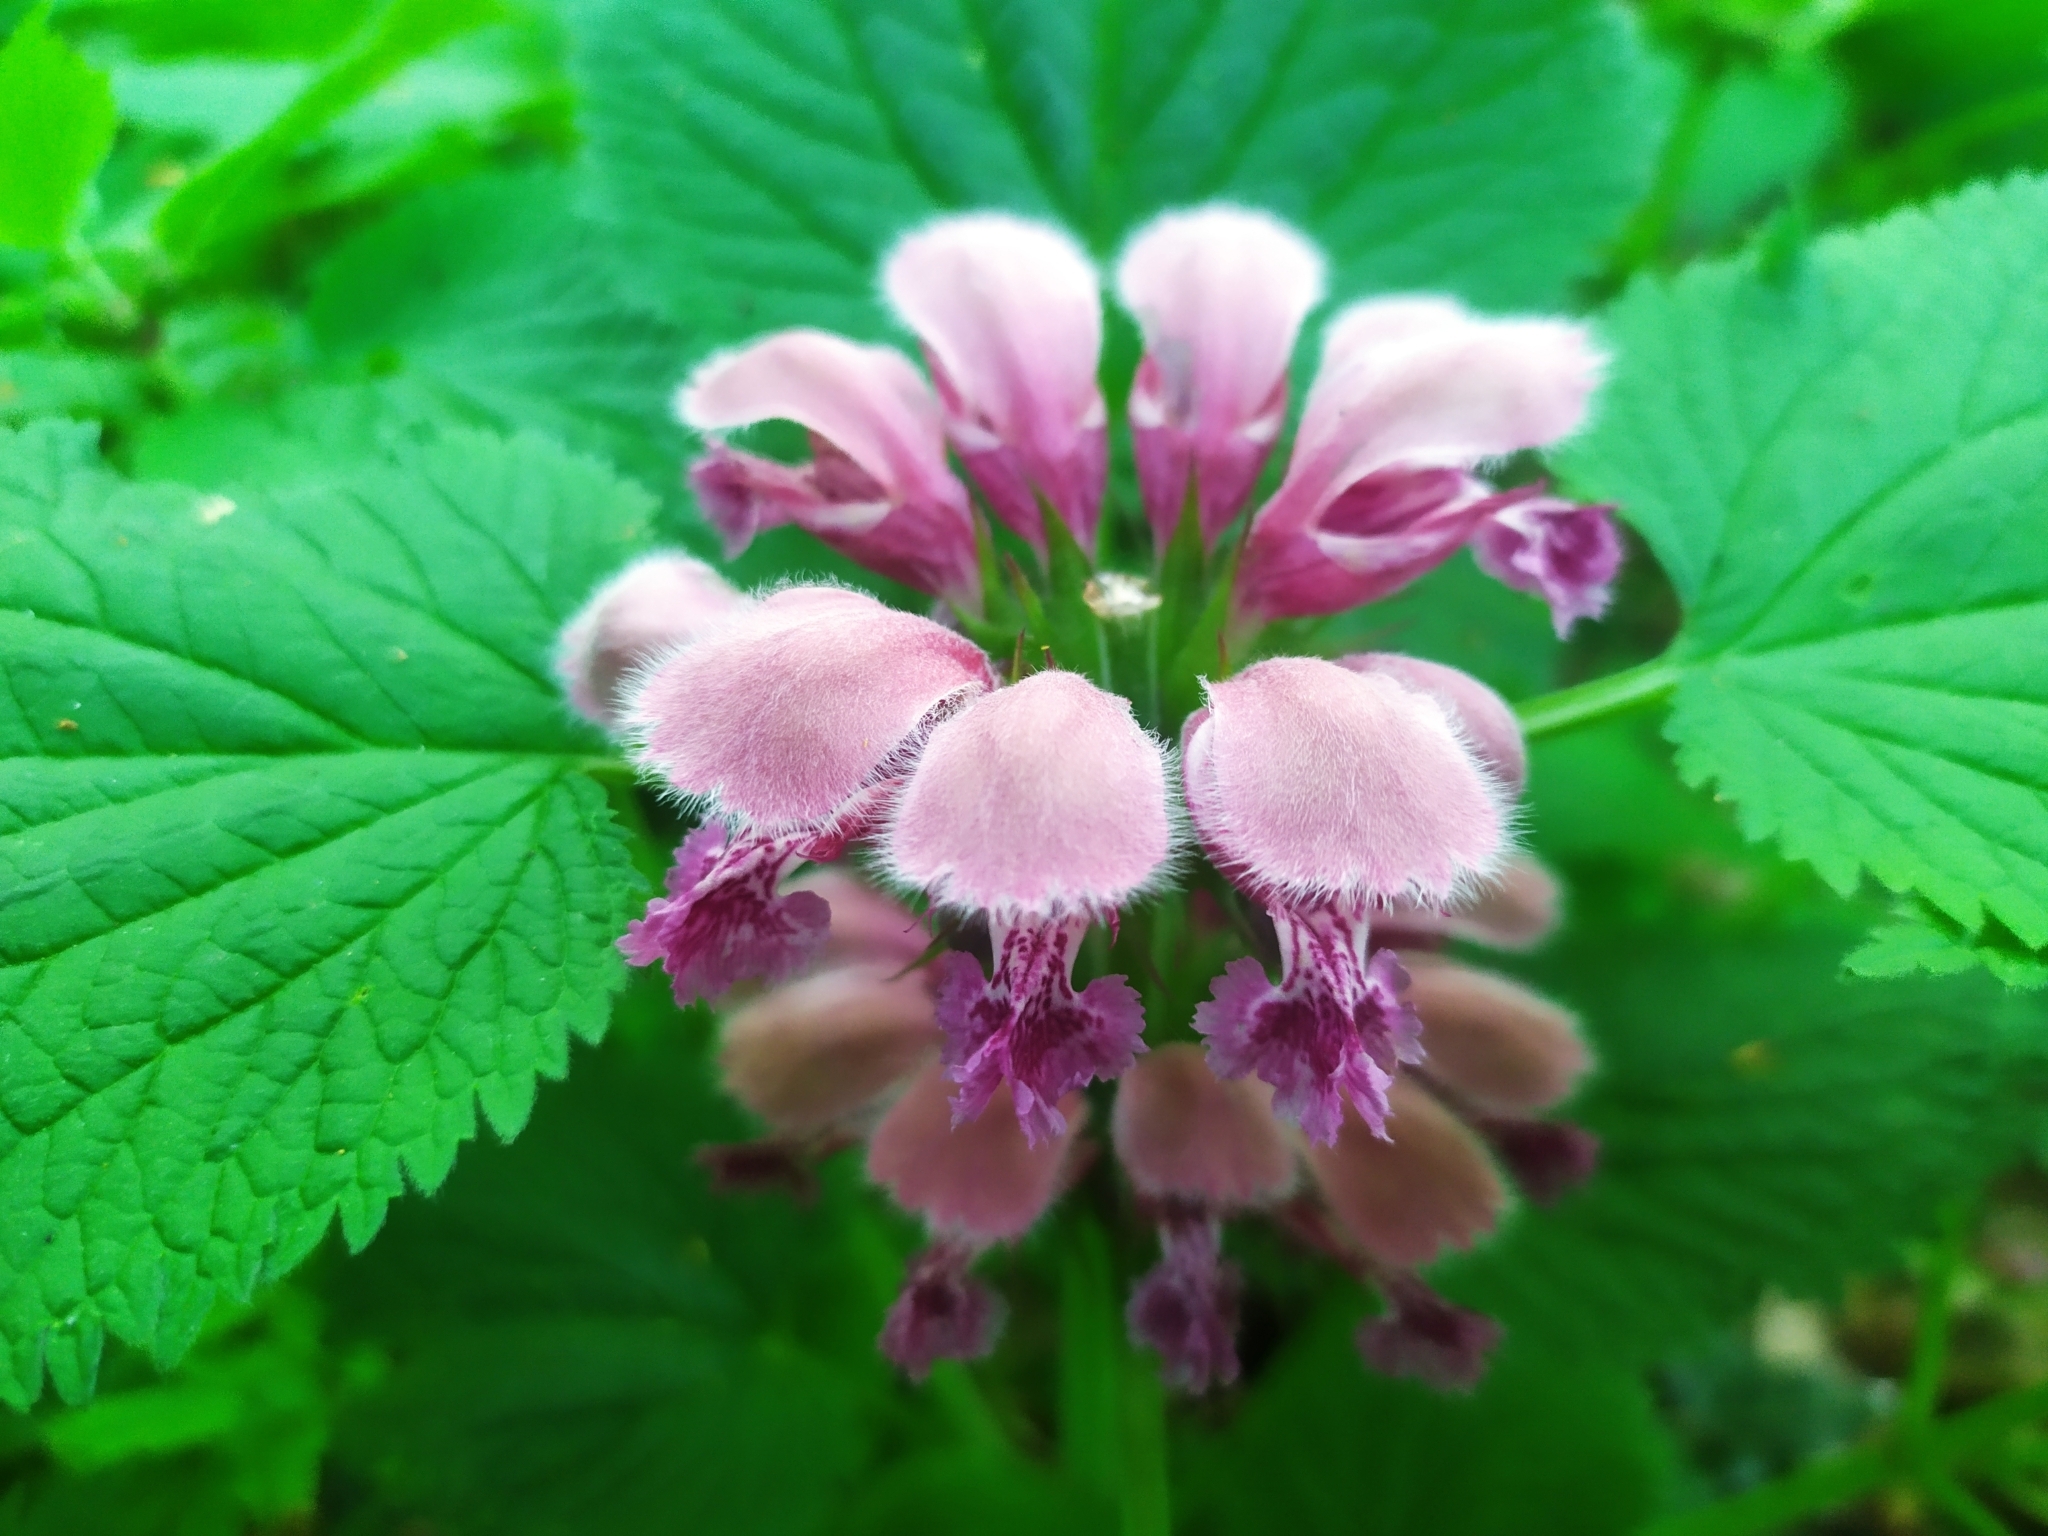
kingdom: Plantae
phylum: Tracheophyta
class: Magnoliopsida
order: Lamiales
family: Lamiaceae
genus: Lamium
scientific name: Lamium orvala
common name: Balm-leaved archangel
